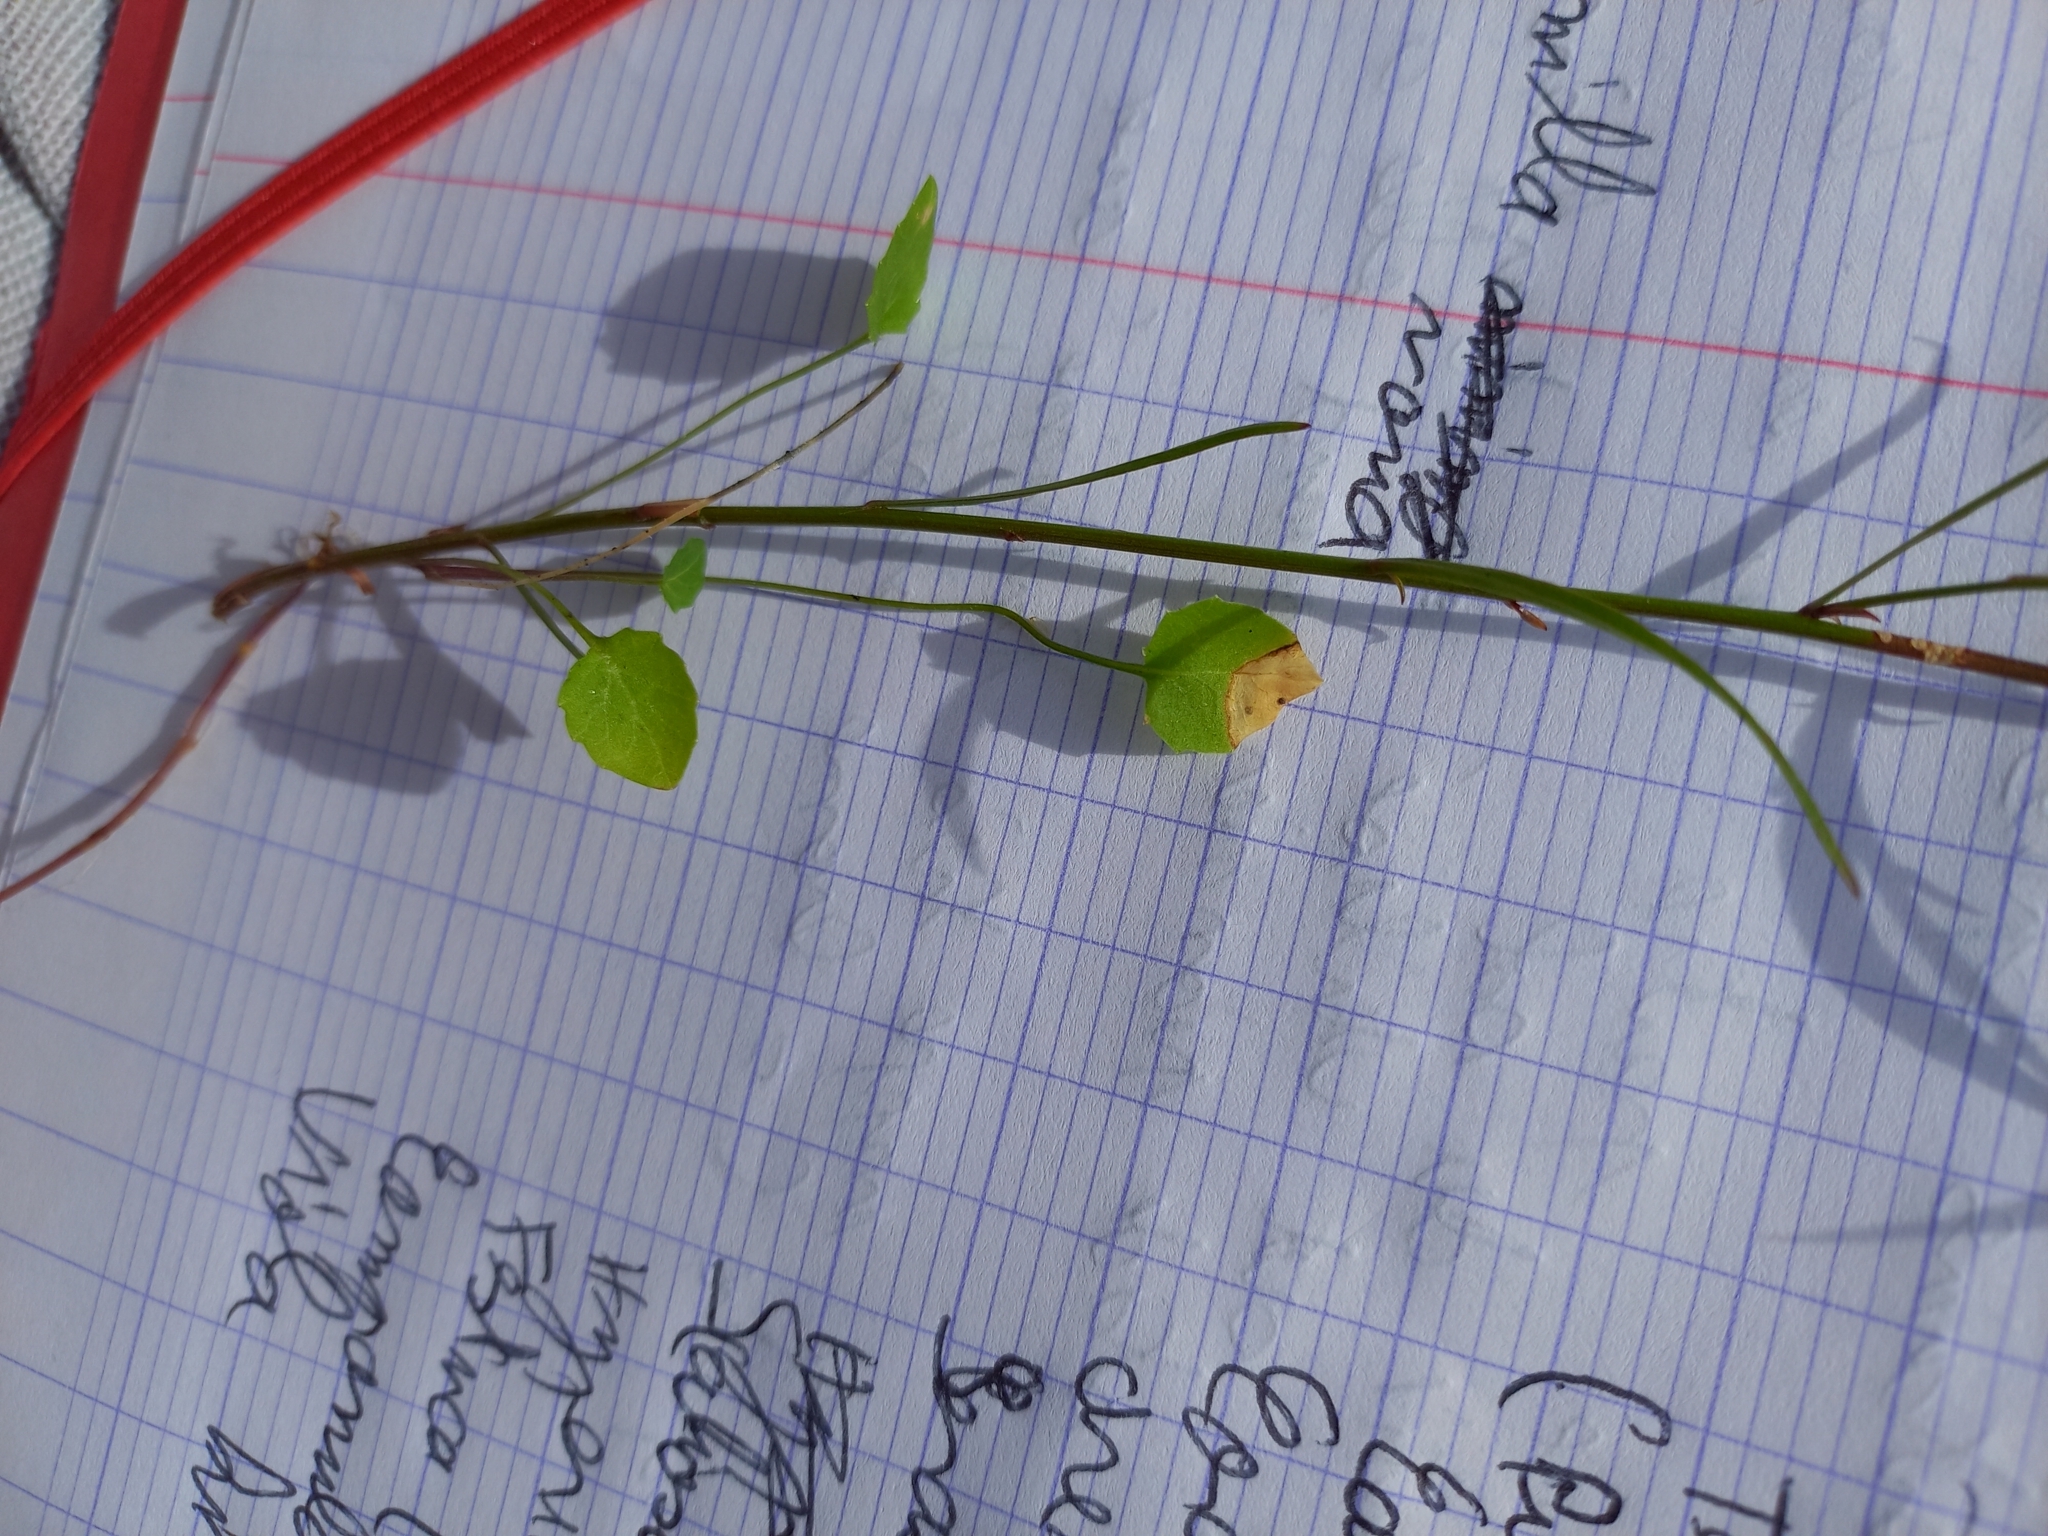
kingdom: Plantae
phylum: Tracheophyta
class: Magnoliopsida
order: Asterales
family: Campanulaceae
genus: Campanula
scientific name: Campanula rotundifolia
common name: Harebell
